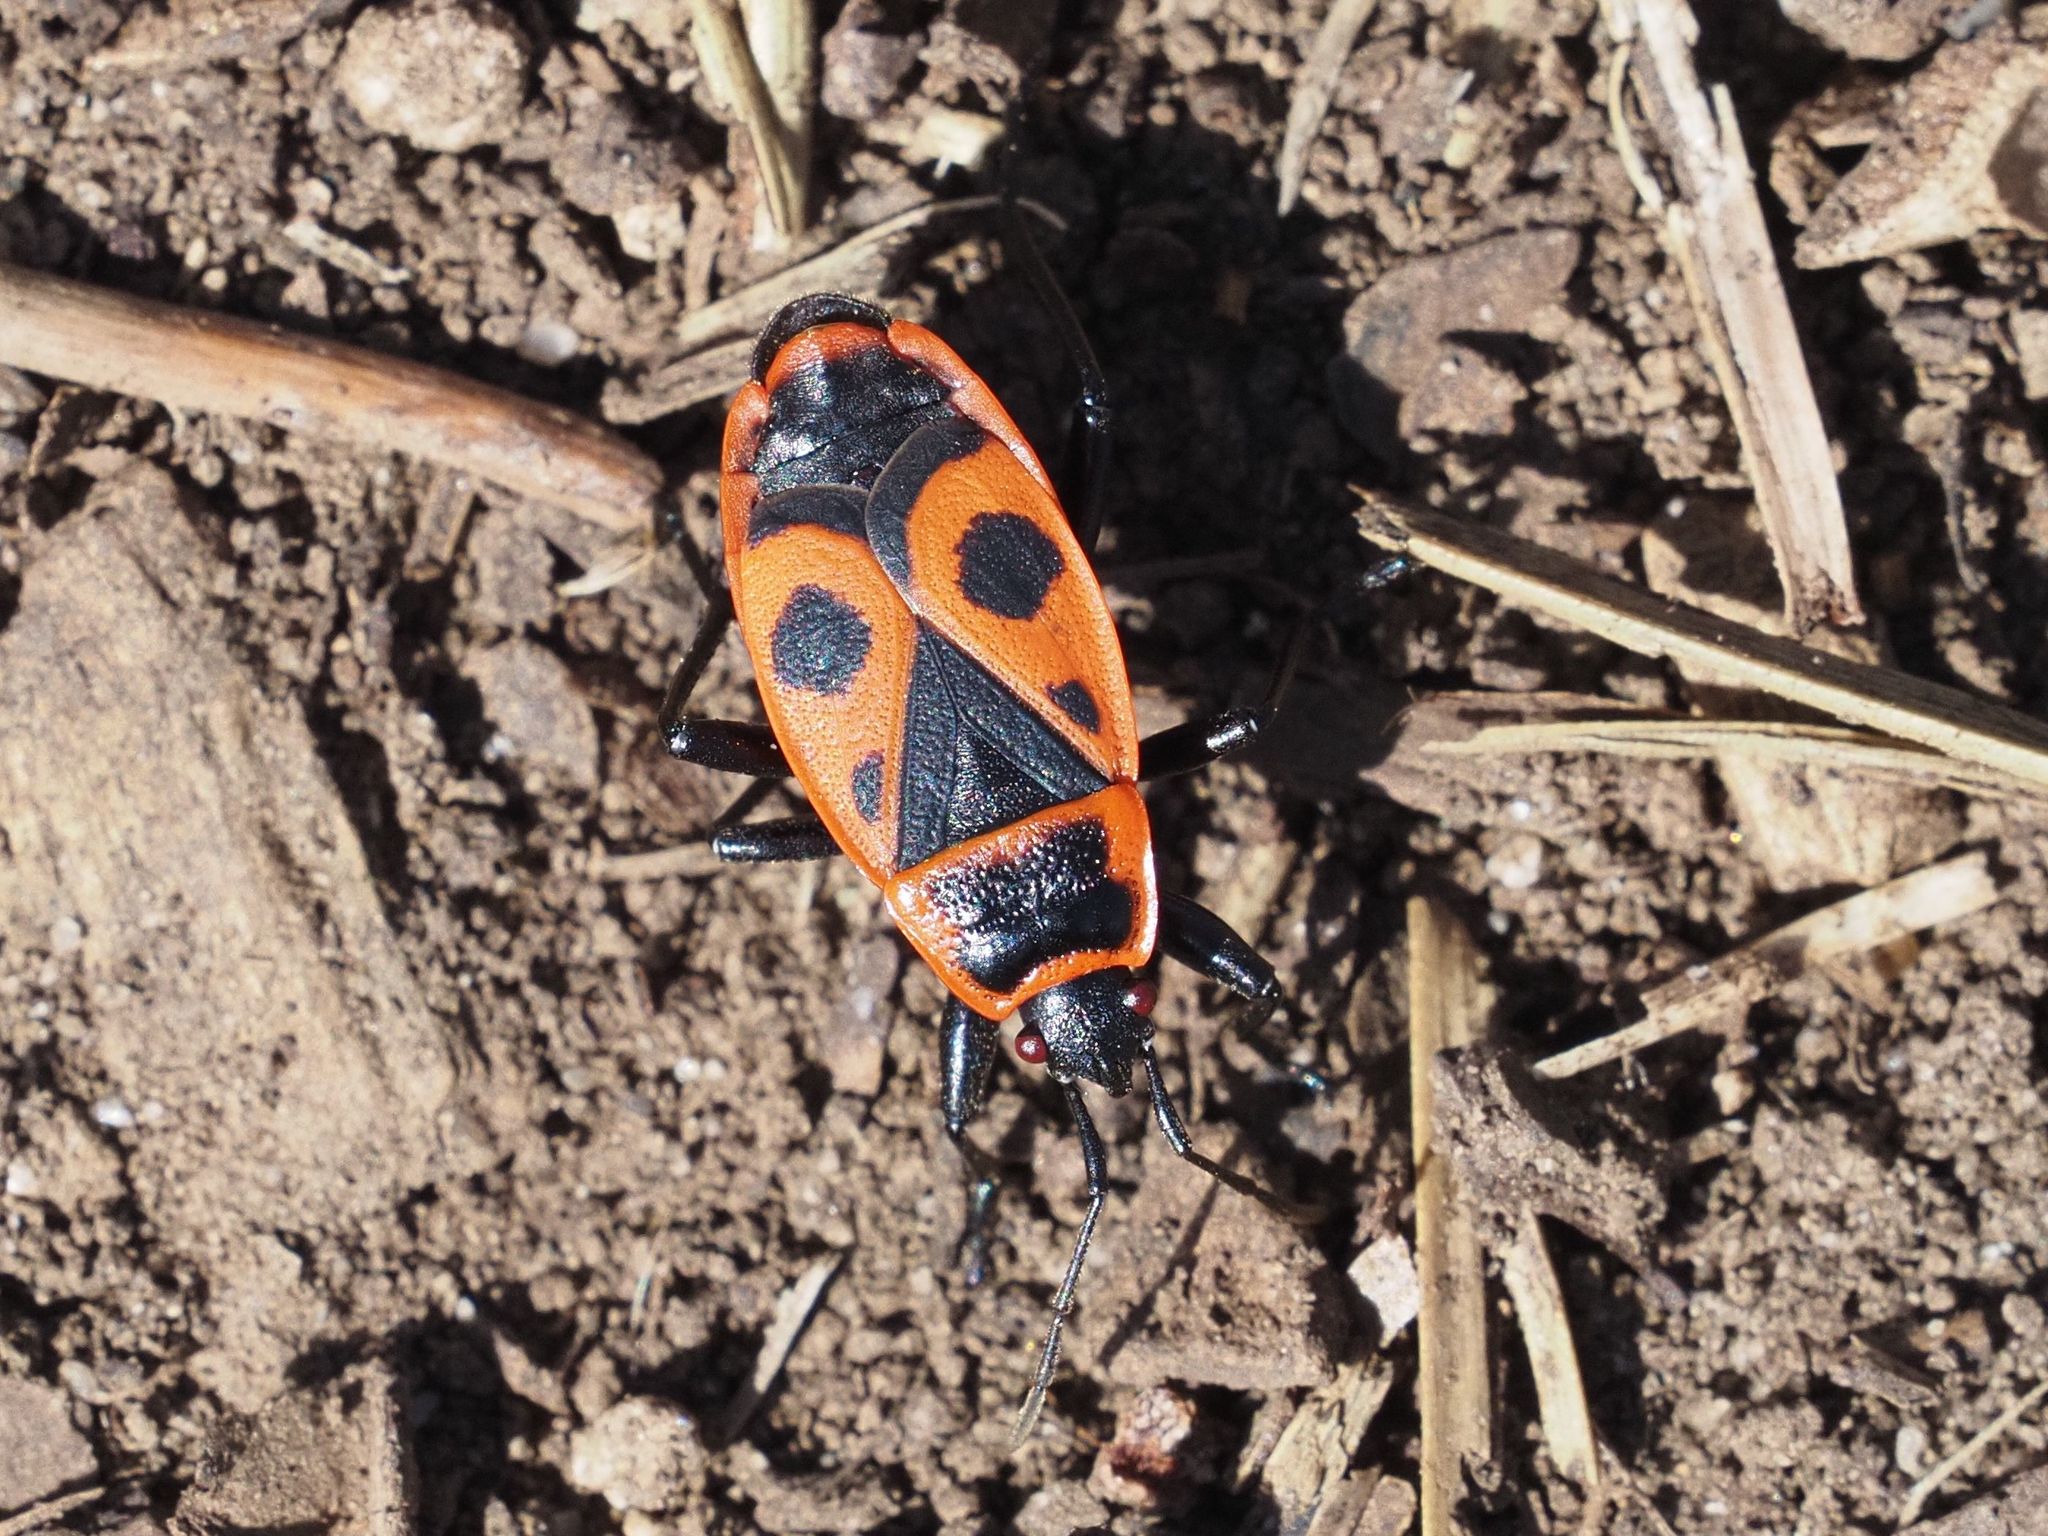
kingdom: Animalia
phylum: Arthropoda
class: Insecta
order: Hemiptera
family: Pyrrhocoridae
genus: Pyrrhocoris
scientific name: Pyrrhocoris apterus
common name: Firebug
